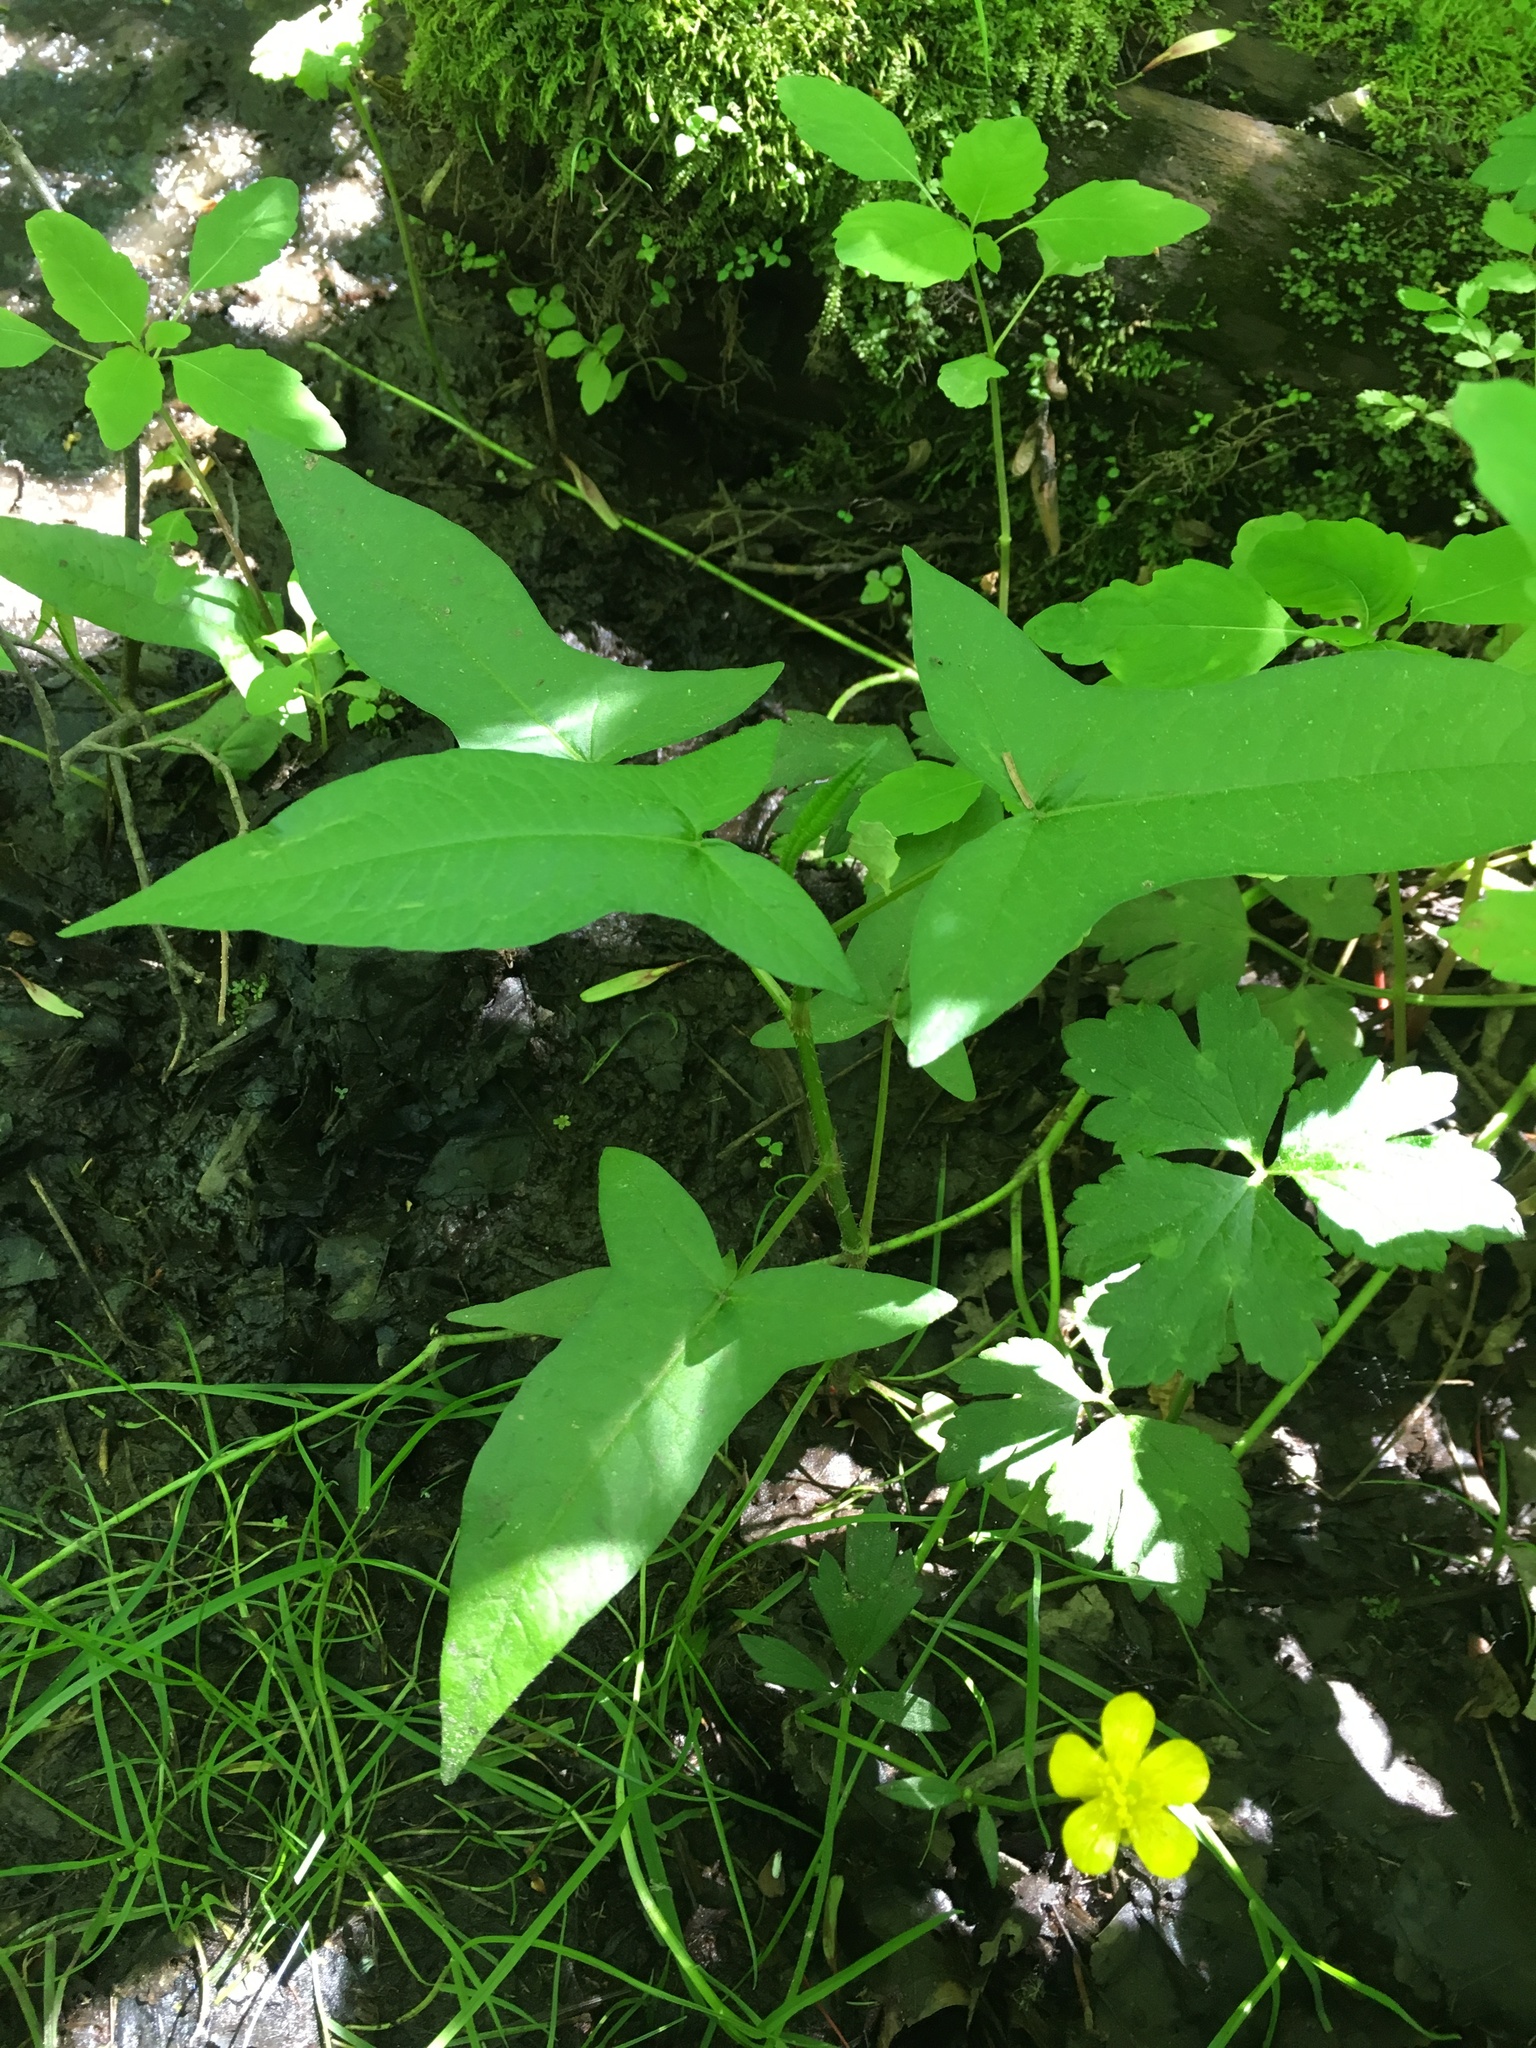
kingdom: Plantae
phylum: Tracheophyta
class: Magnoliopsida
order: Caryophyllales
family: Polygonaceae
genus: Persicaria
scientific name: Persicaria arifolia
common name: Halberd-leaved tear-thumb
